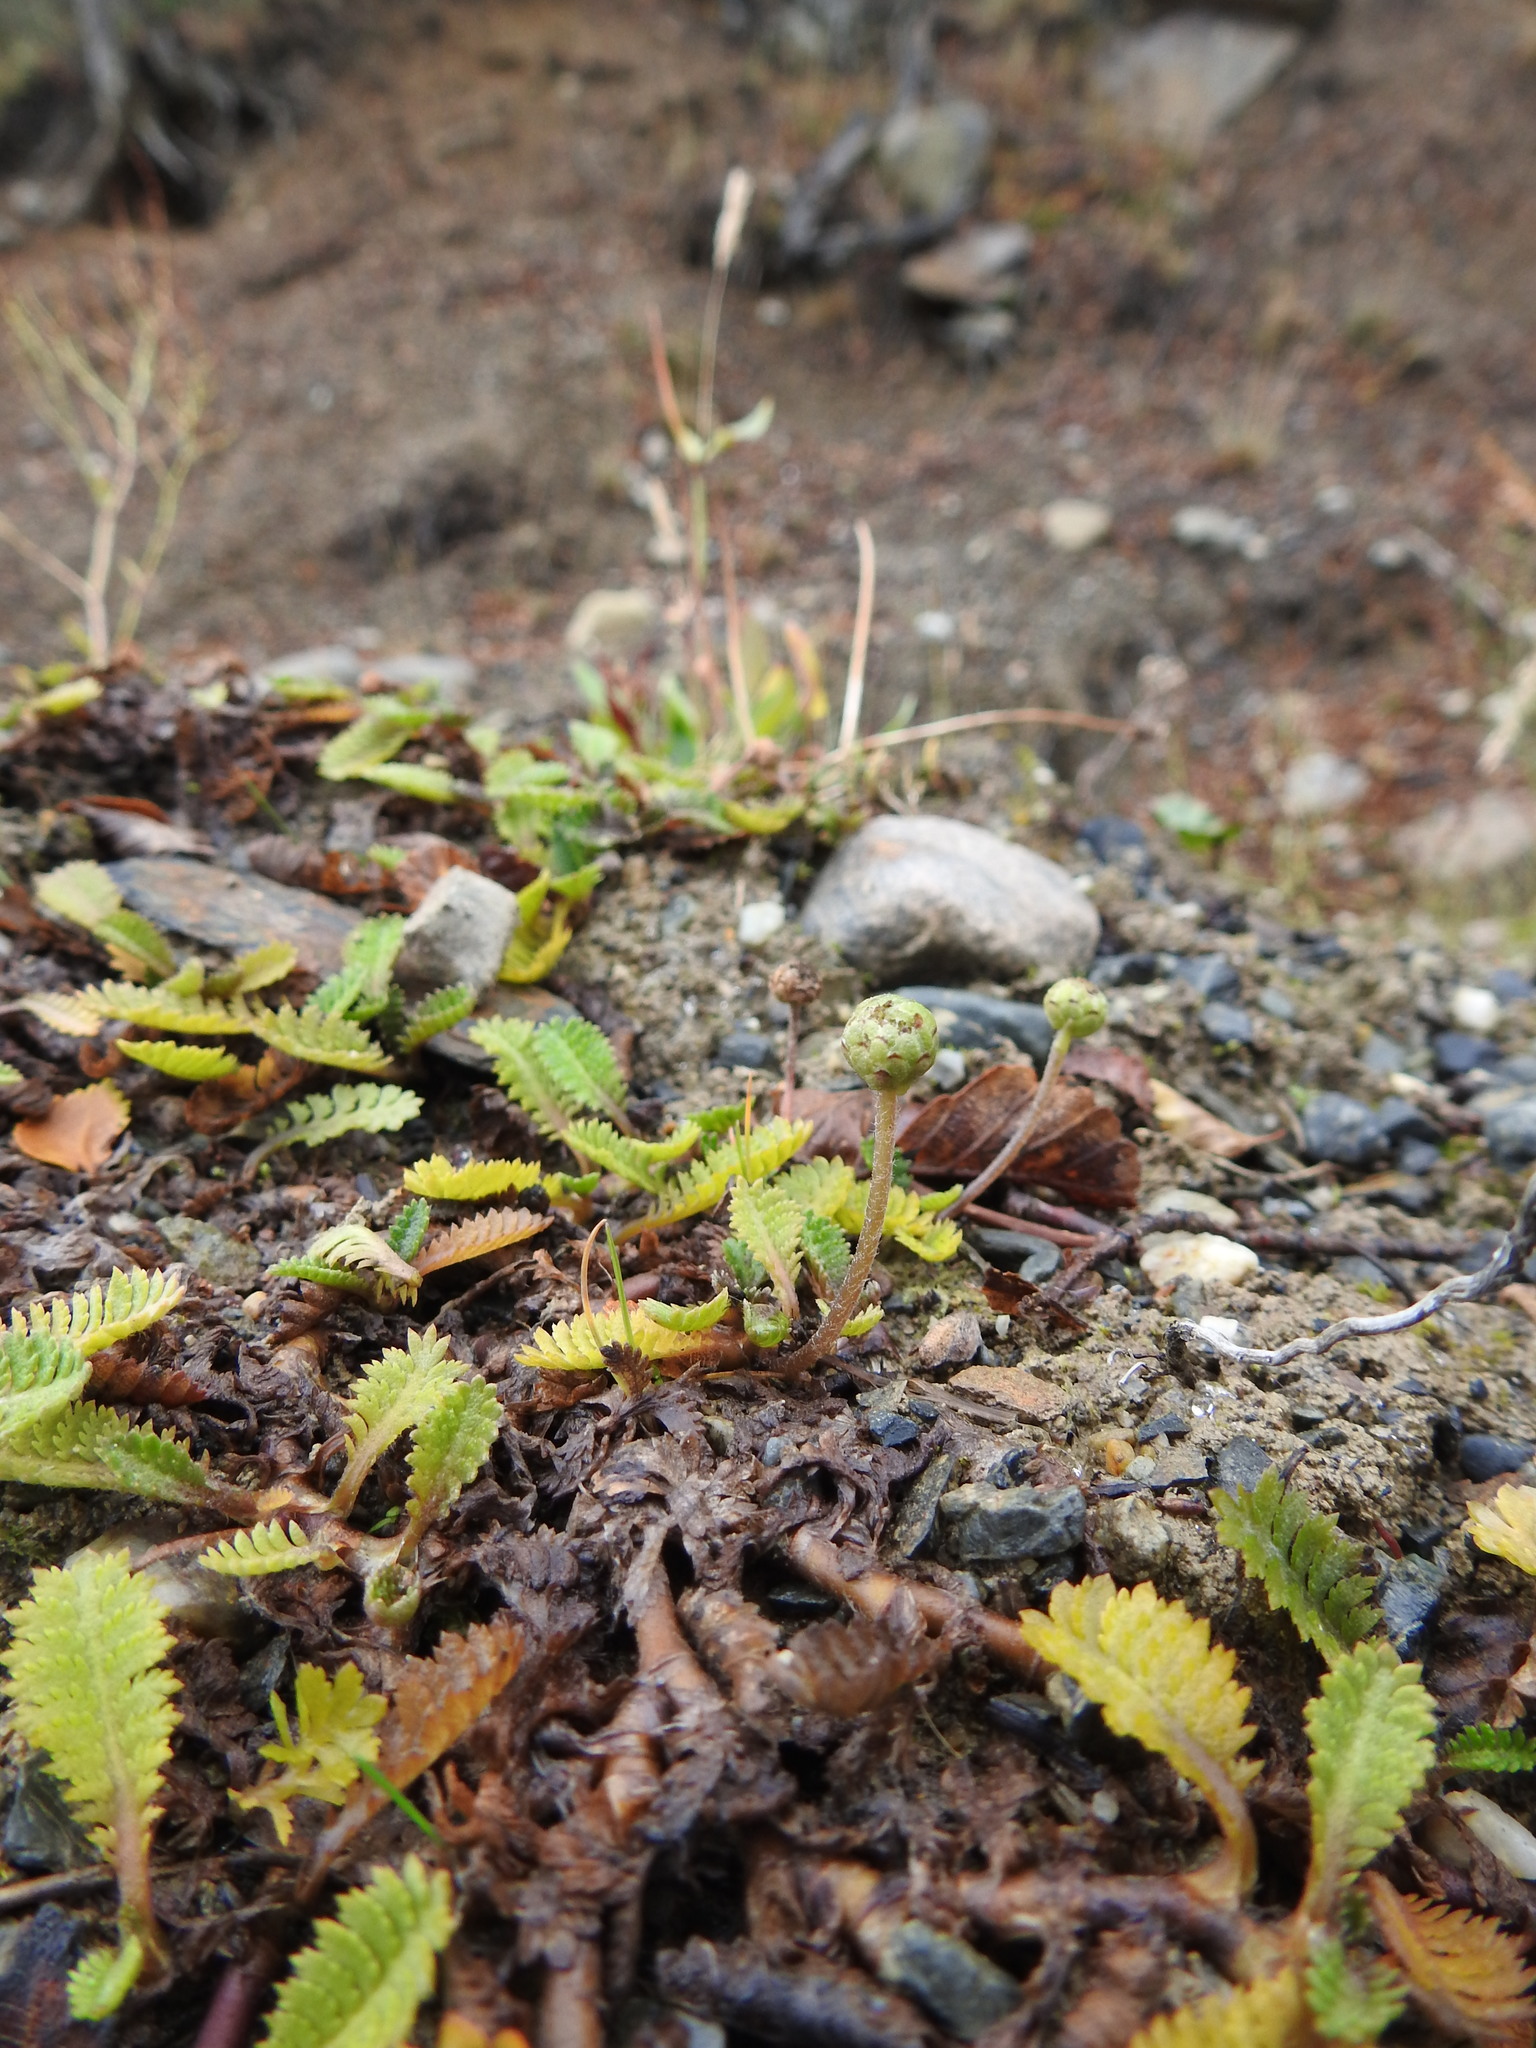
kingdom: Plantae
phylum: Tracheophyta
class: Magnoliopsida
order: Asterales
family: Asteraceae
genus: Leptinella
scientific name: Leptinella scariosa
